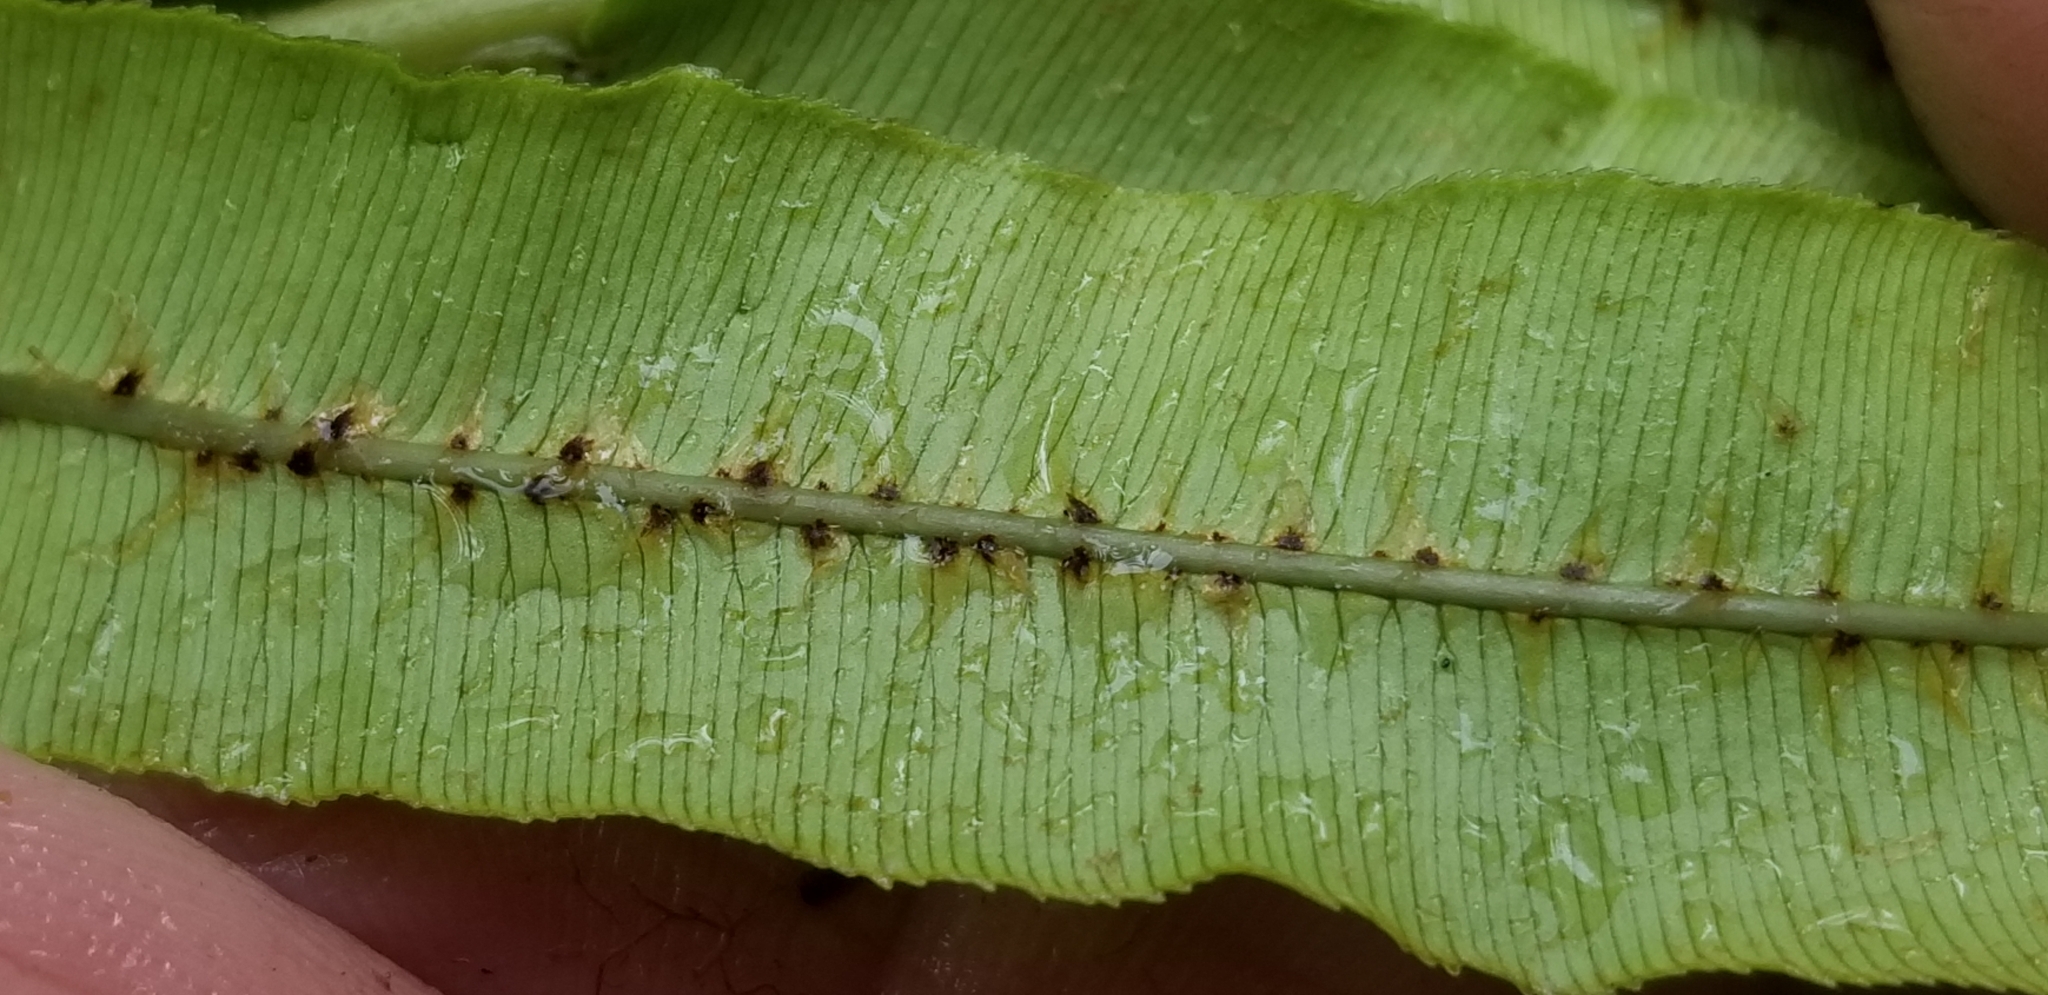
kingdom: Plantae
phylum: Tracheophyta
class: Polypodiopsida
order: Polypodiales
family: Blechnaceae
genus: Parablechnum
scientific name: Parablechnum novae-zelandiae
